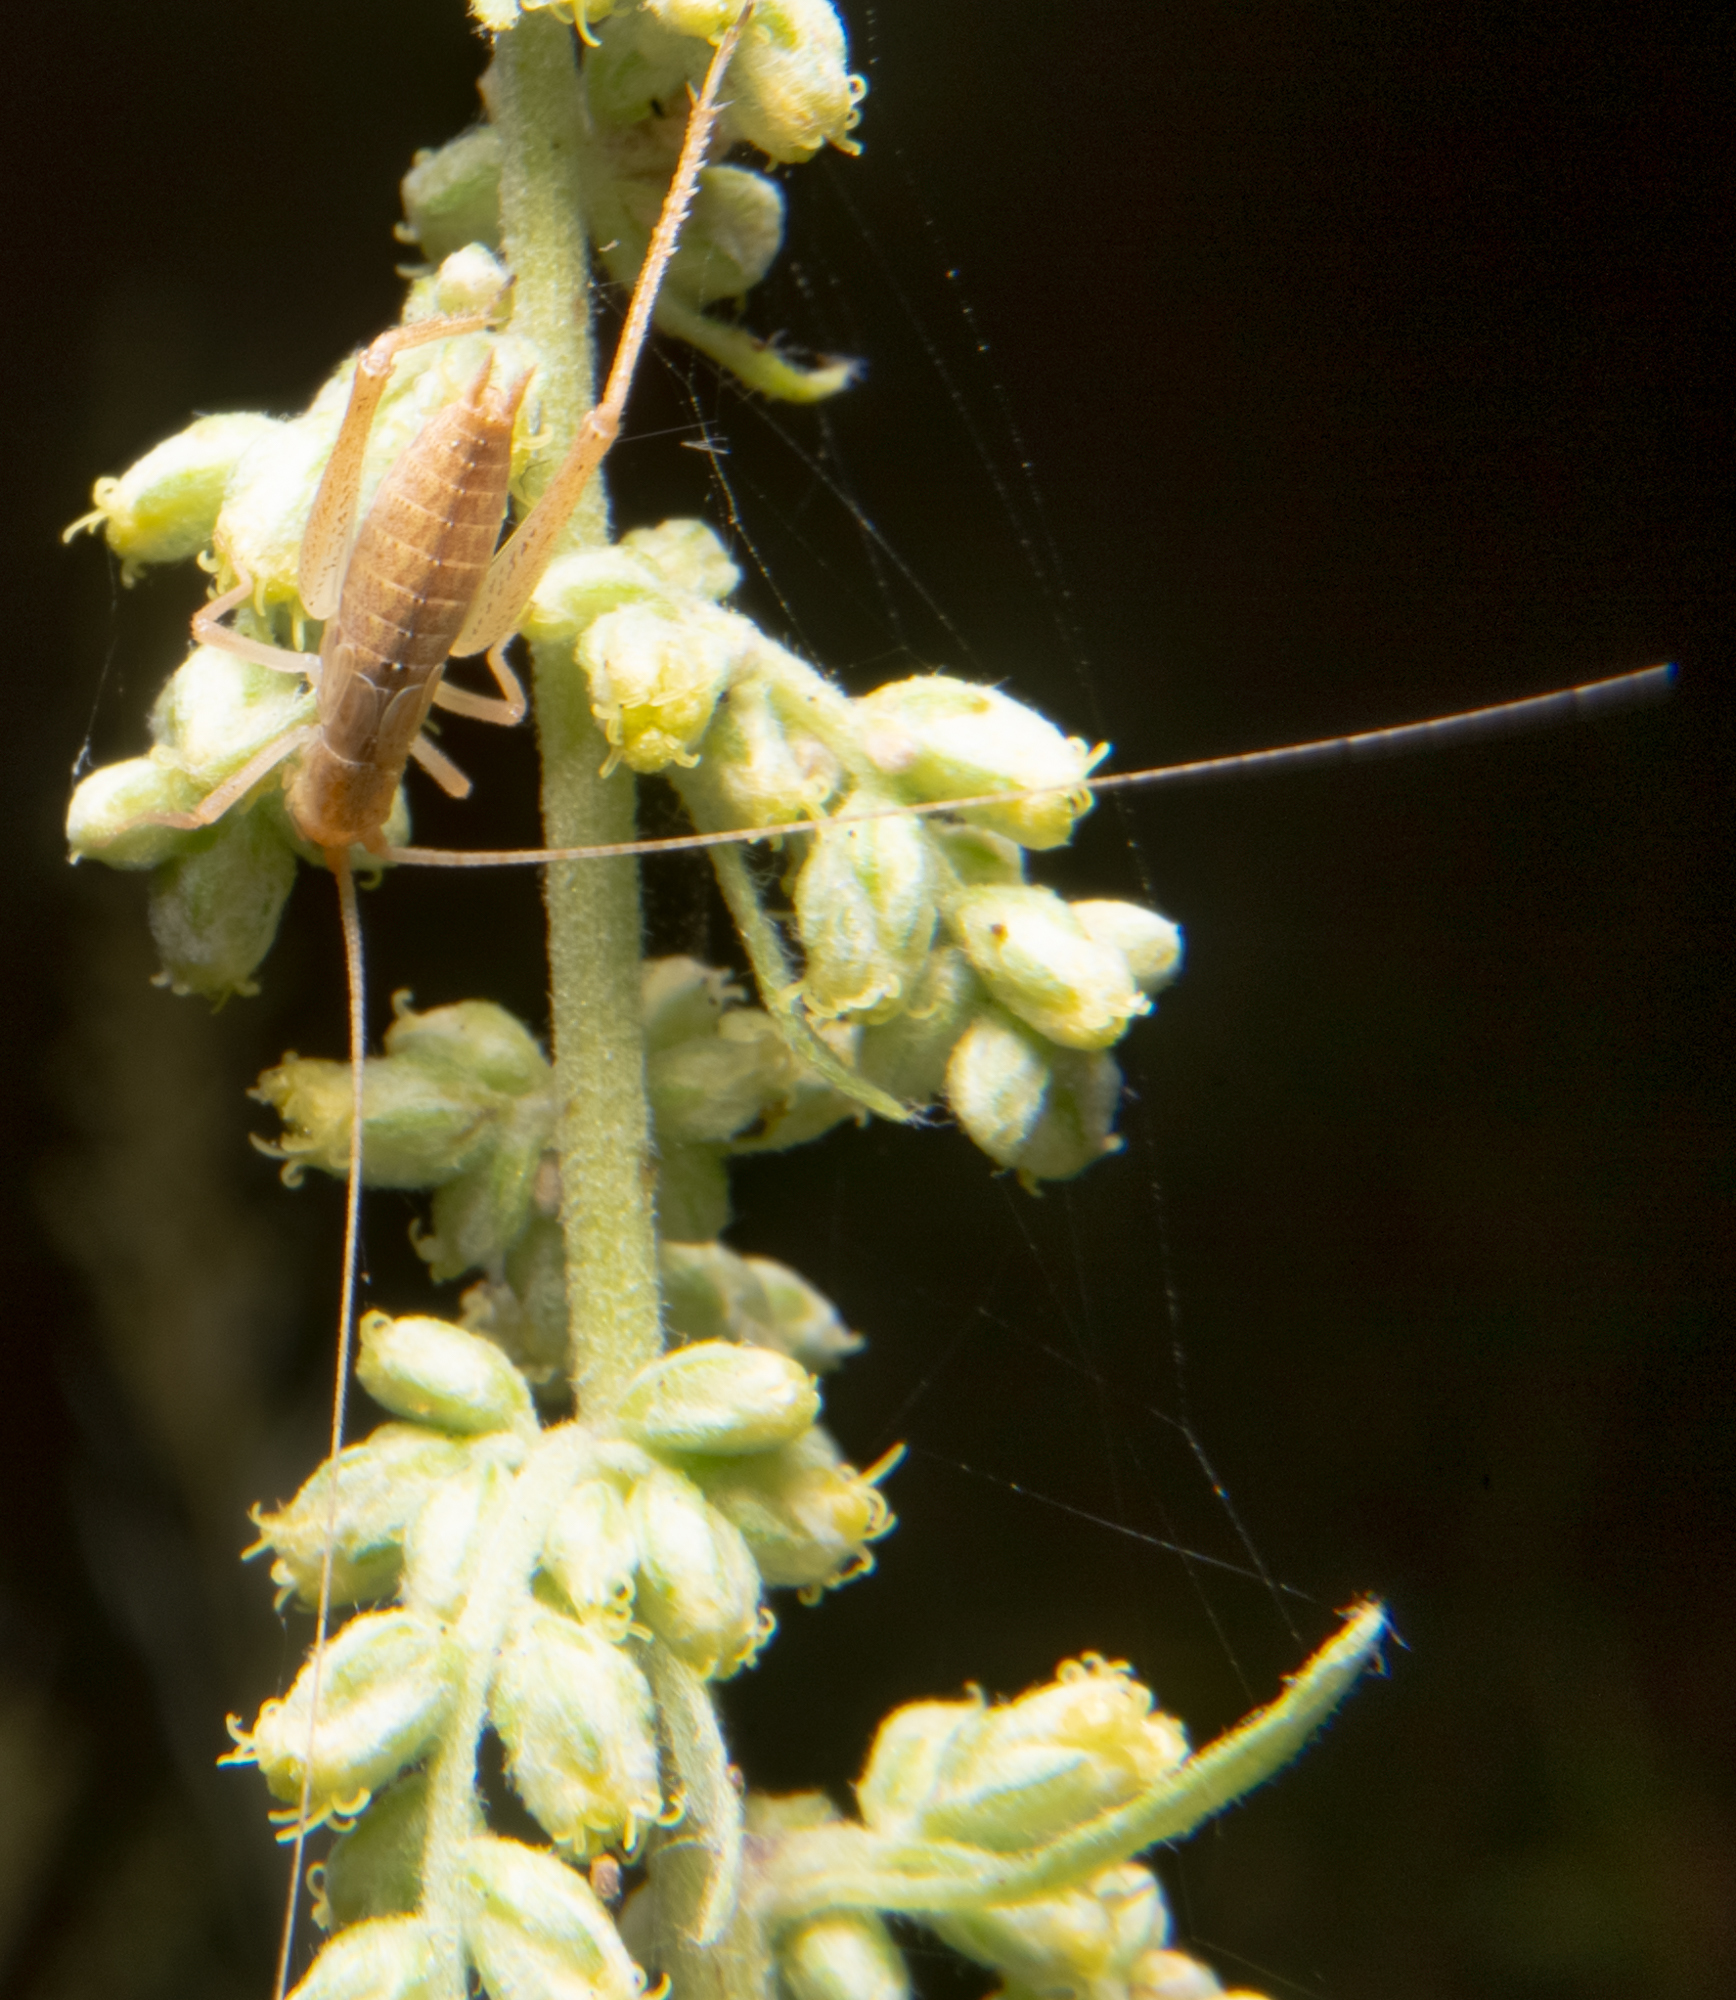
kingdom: Animalia
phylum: Arthropoda
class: Insecta
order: Orthoptera
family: Gryllidae
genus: Oecanthus
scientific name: Oecanthus californicus
